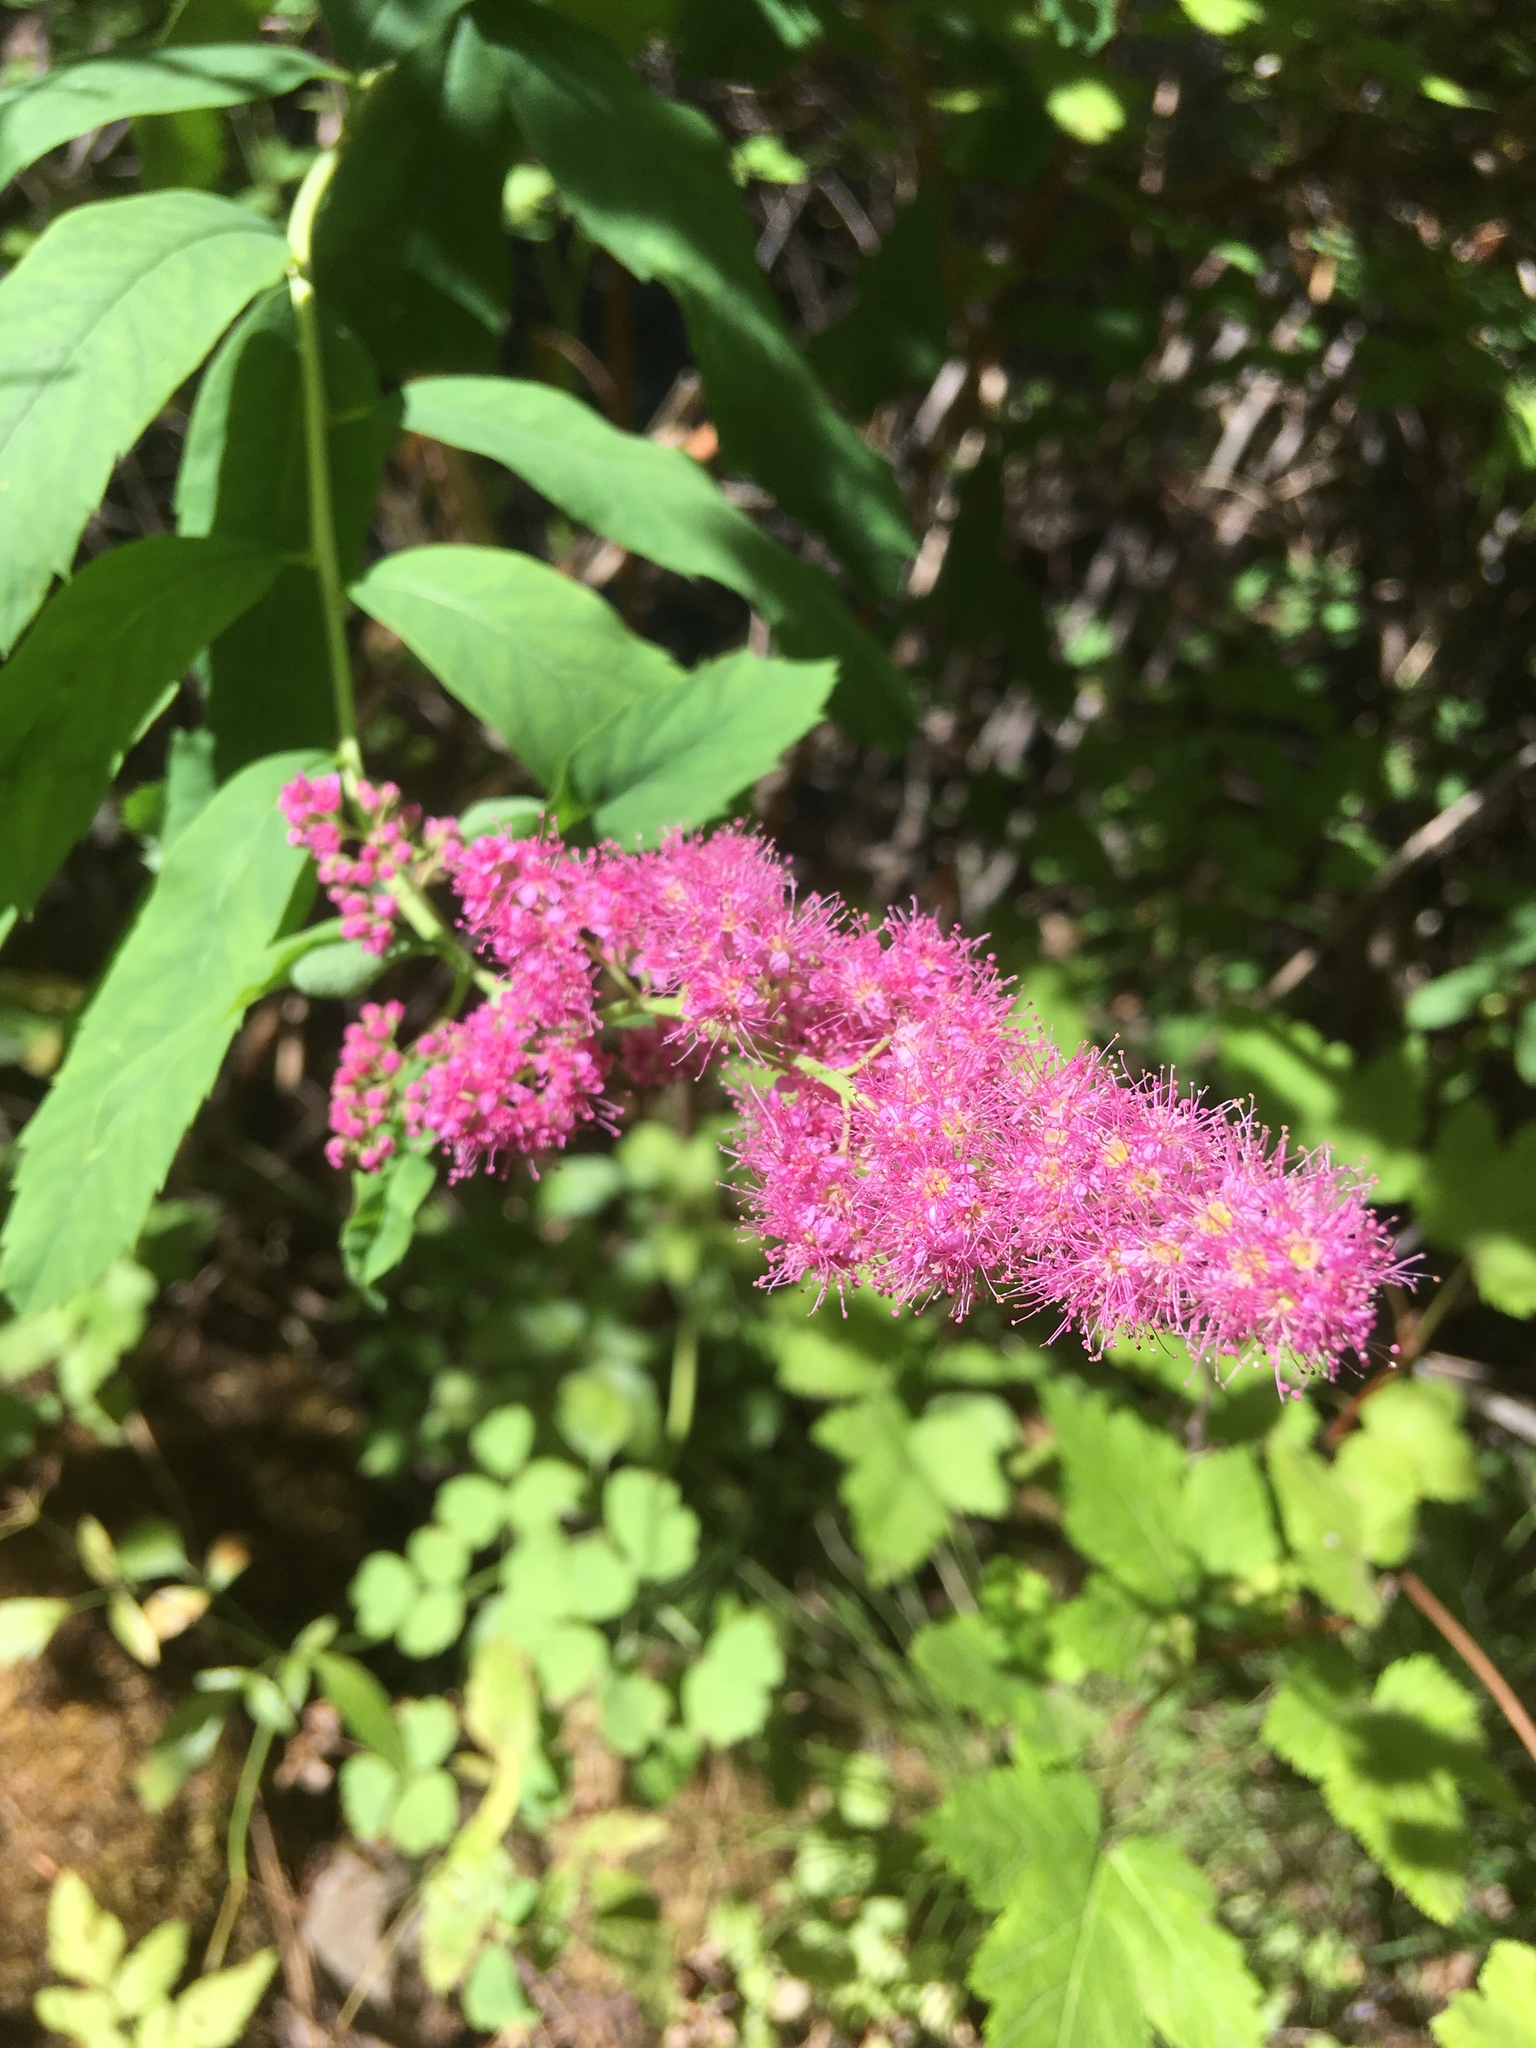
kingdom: Plantae
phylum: Tracheophyta
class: Magnoliopsida
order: Rosales
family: Rosaceae
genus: Spiraea
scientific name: Spiraea douglasii
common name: Steeplebush
